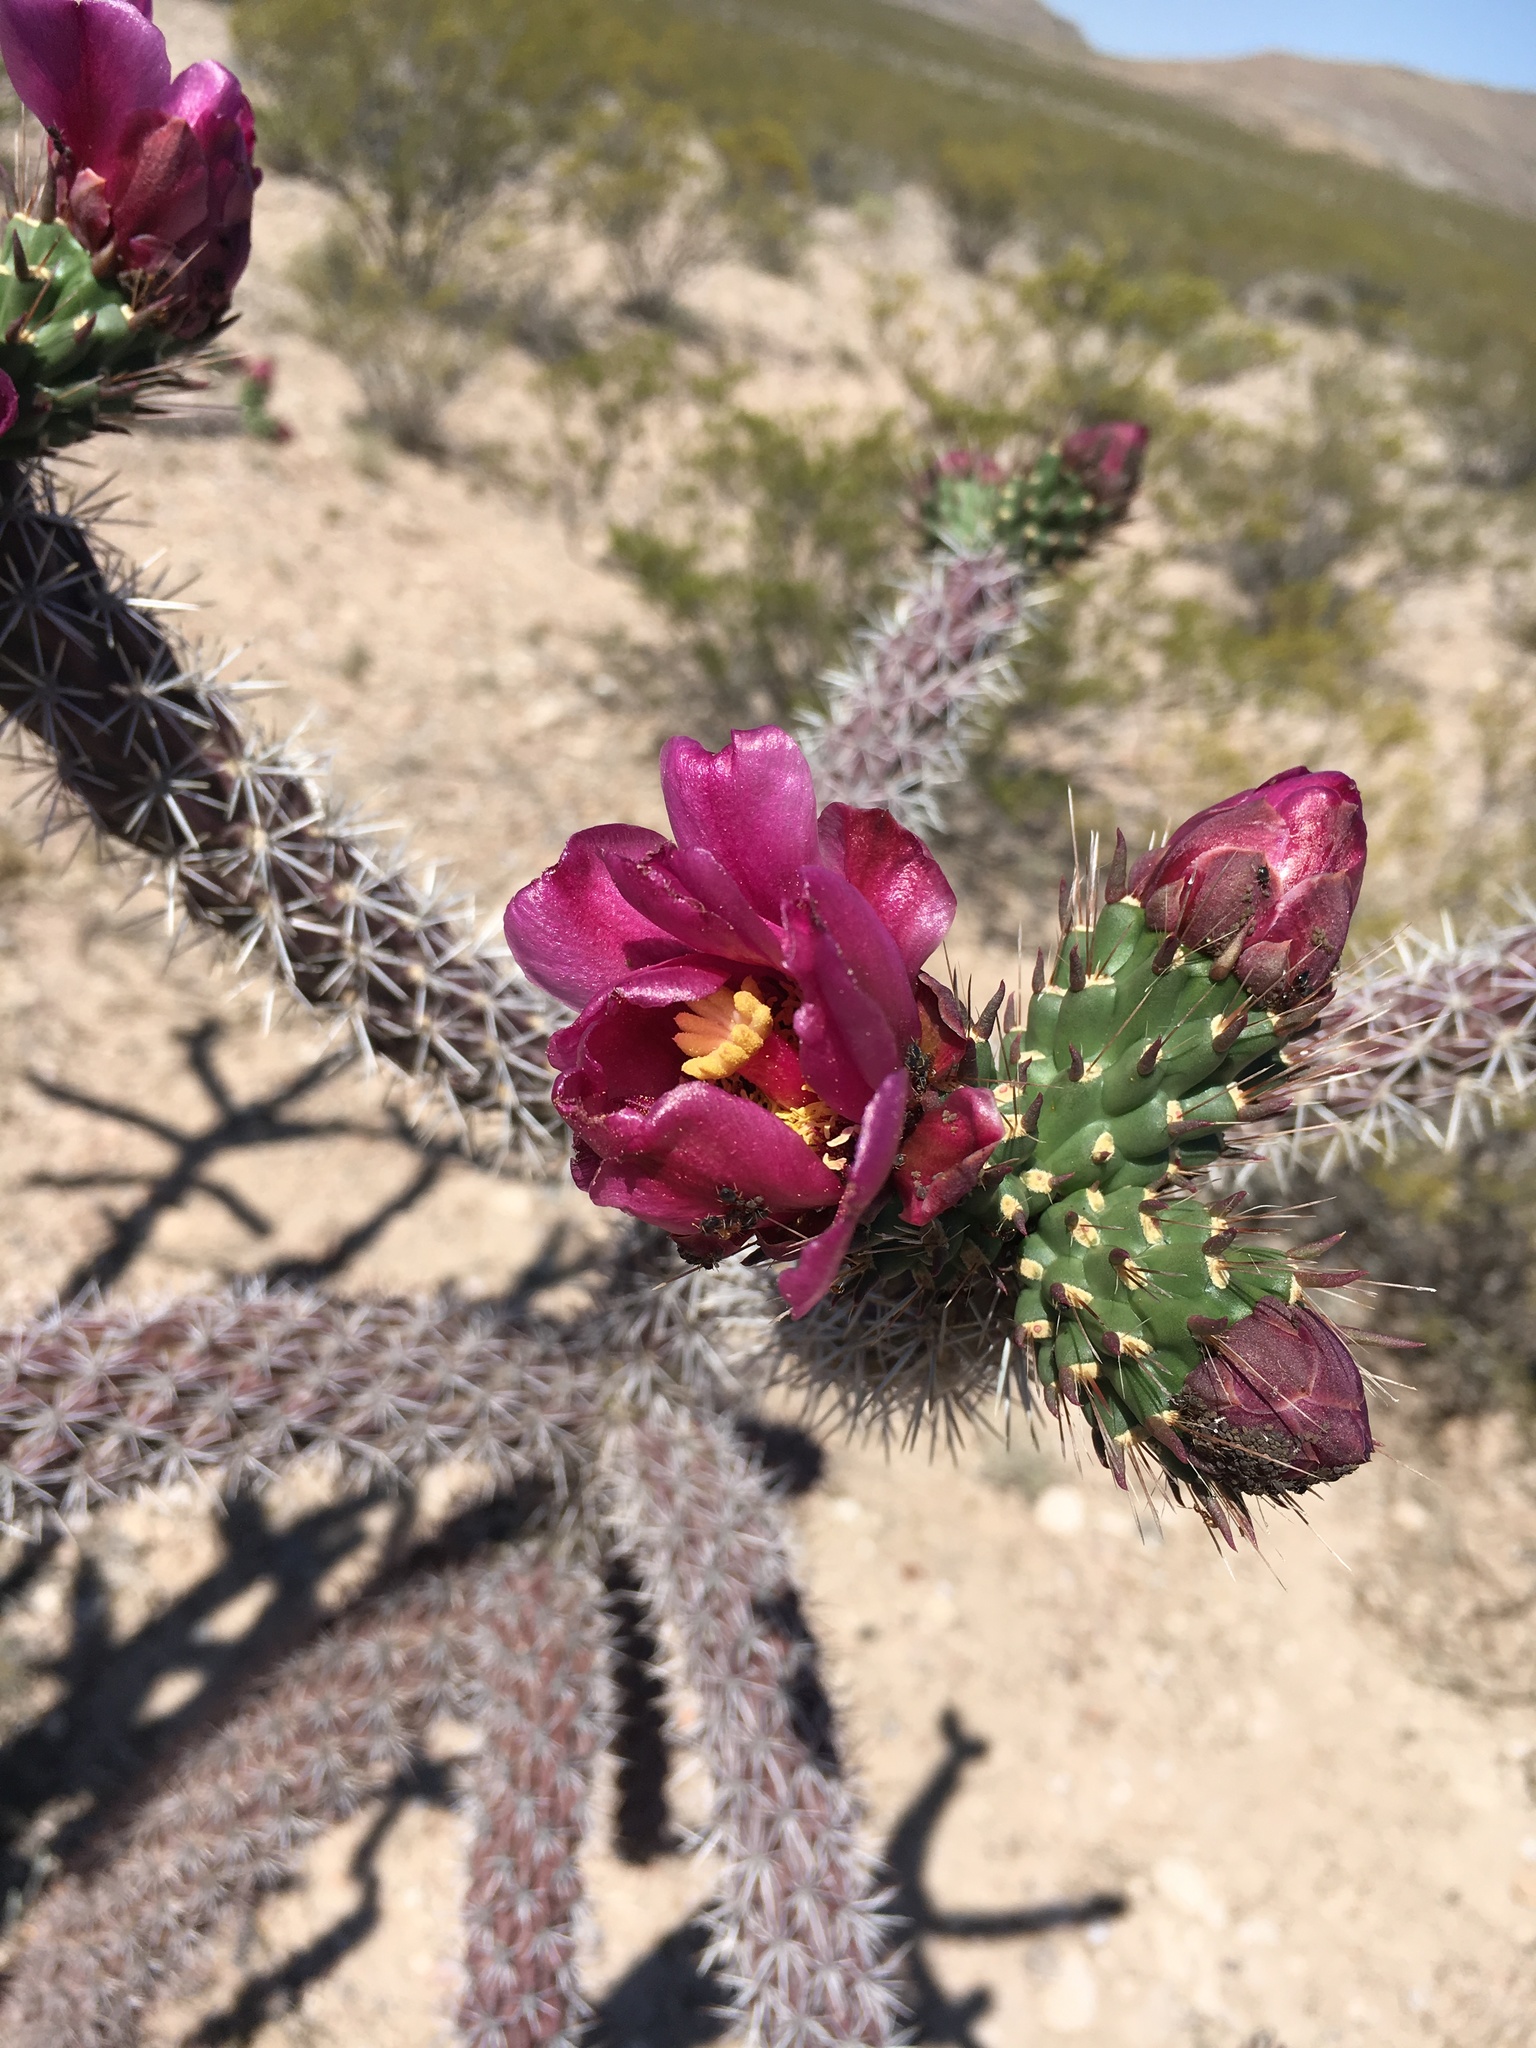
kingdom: Plantae
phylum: Tracheophyta
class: Magnoliopsida
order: Caryophyllales
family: Cactaceae
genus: Cylindropuntia
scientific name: Cylindropuntia imbricata
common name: Candelabrum cactus
